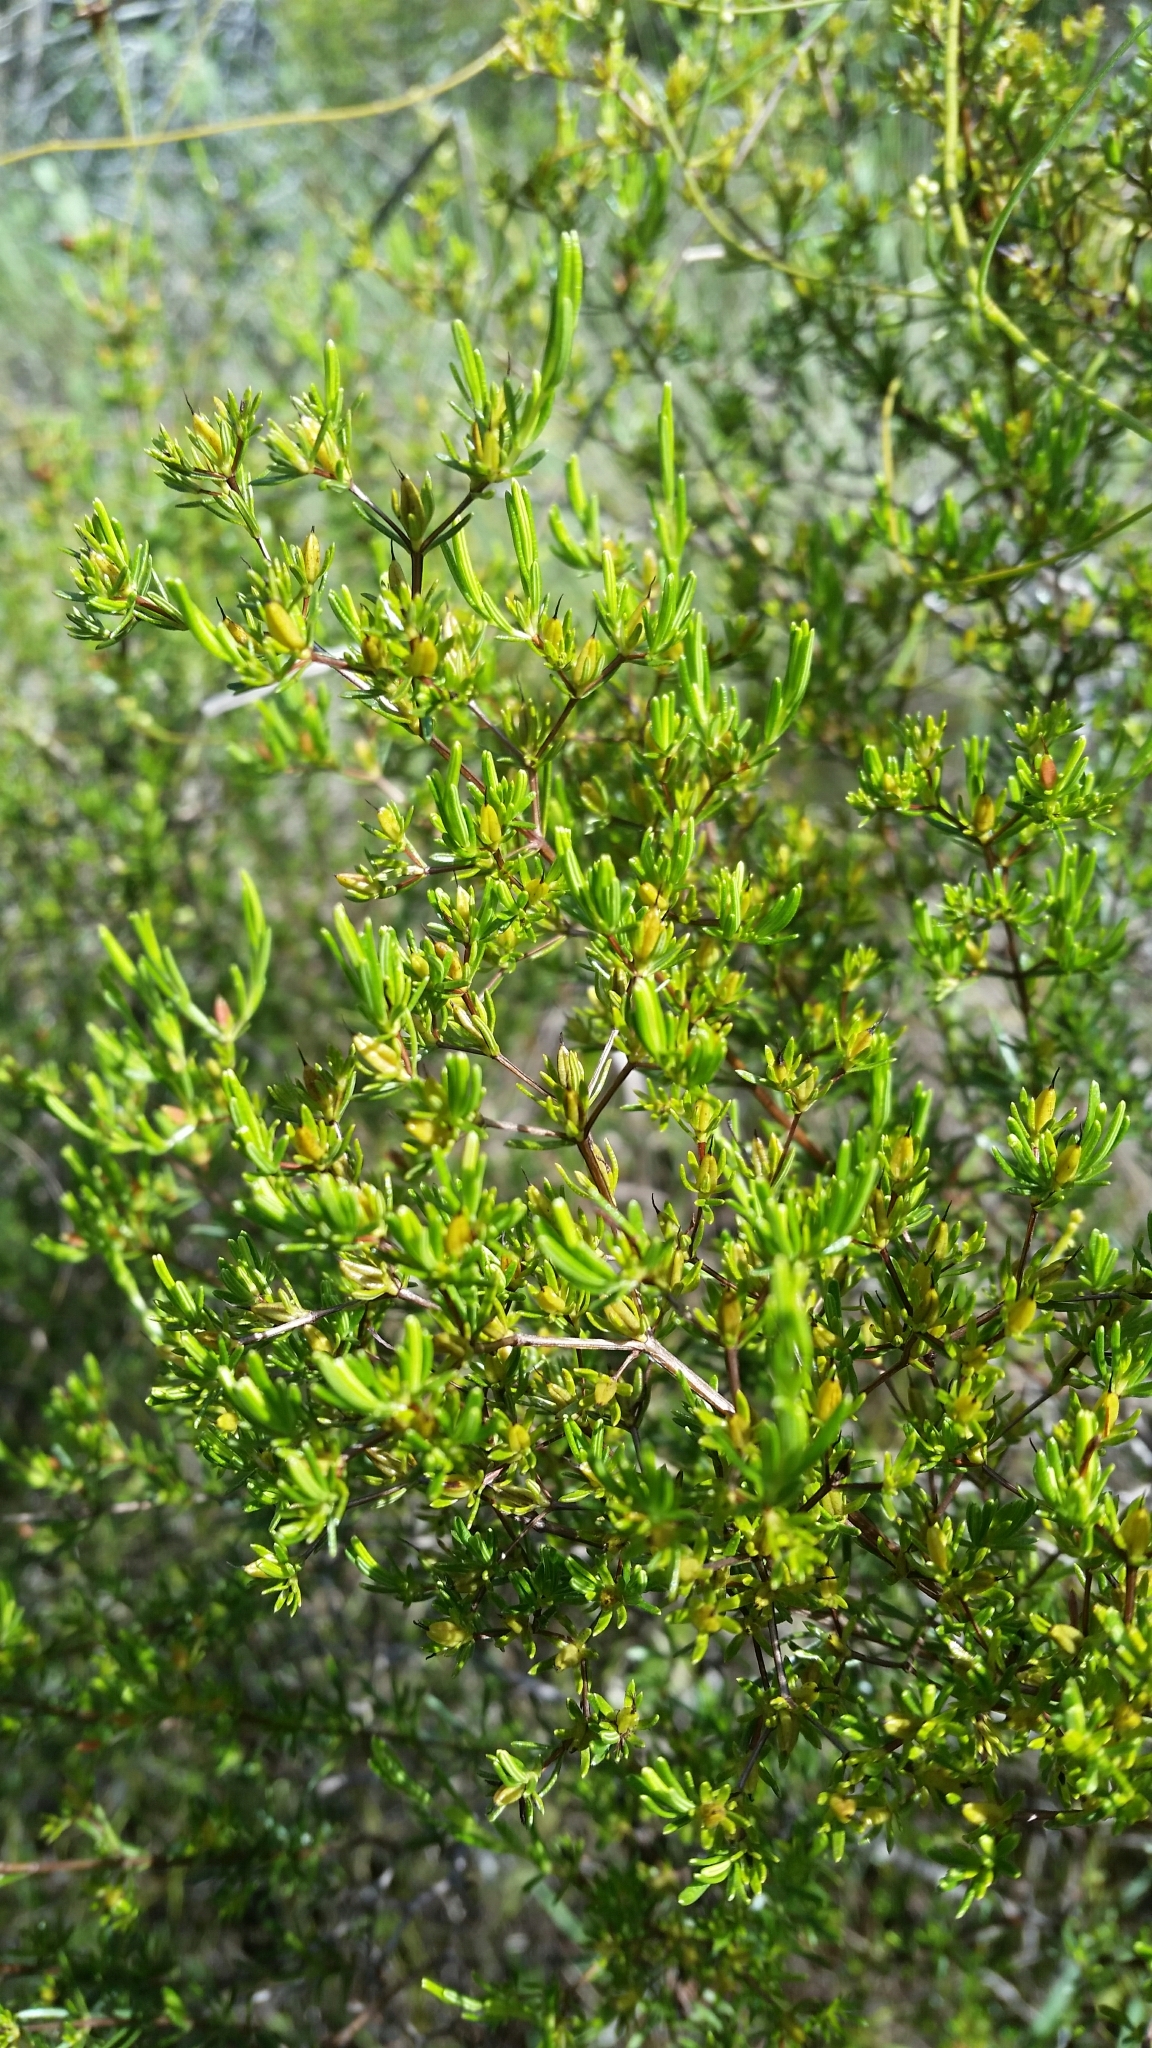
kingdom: Plantae
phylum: Tracheophyta
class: Magnoliopsida
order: Malpighiales
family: Hypericaceae
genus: Hypericum
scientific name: Hypericum limosum
